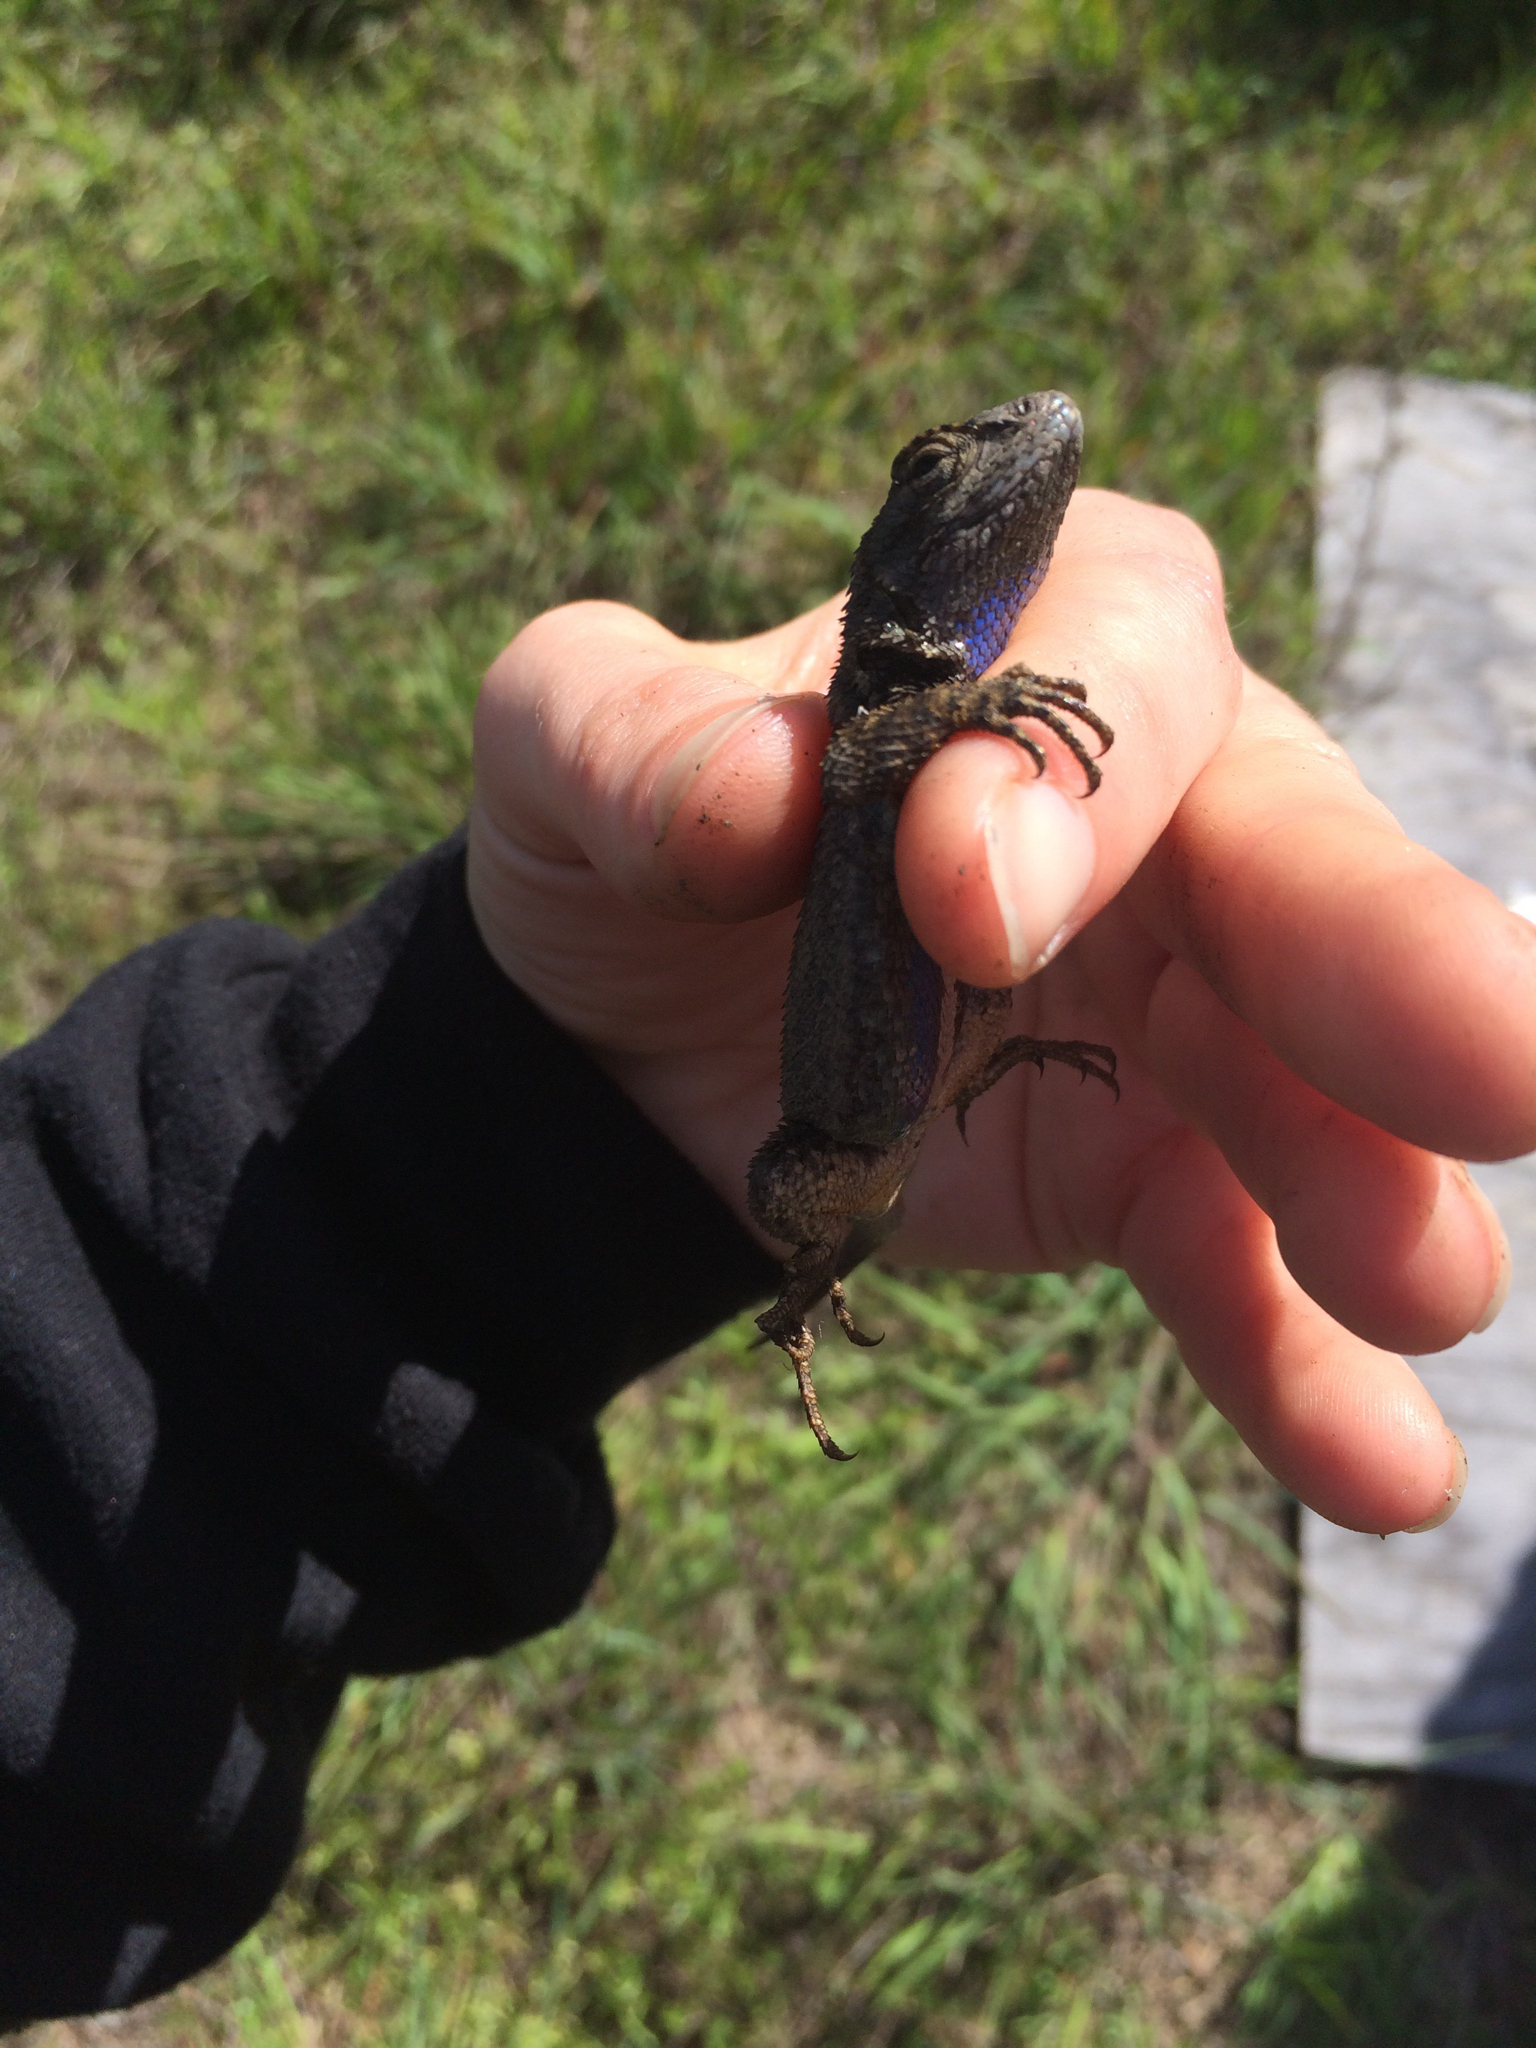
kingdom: Animalia
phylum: Chordata
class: Squamata
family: Phrynosomatidae
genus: Sceloporus
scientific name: Sceloporus occidentalis
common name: Western fence lizard
